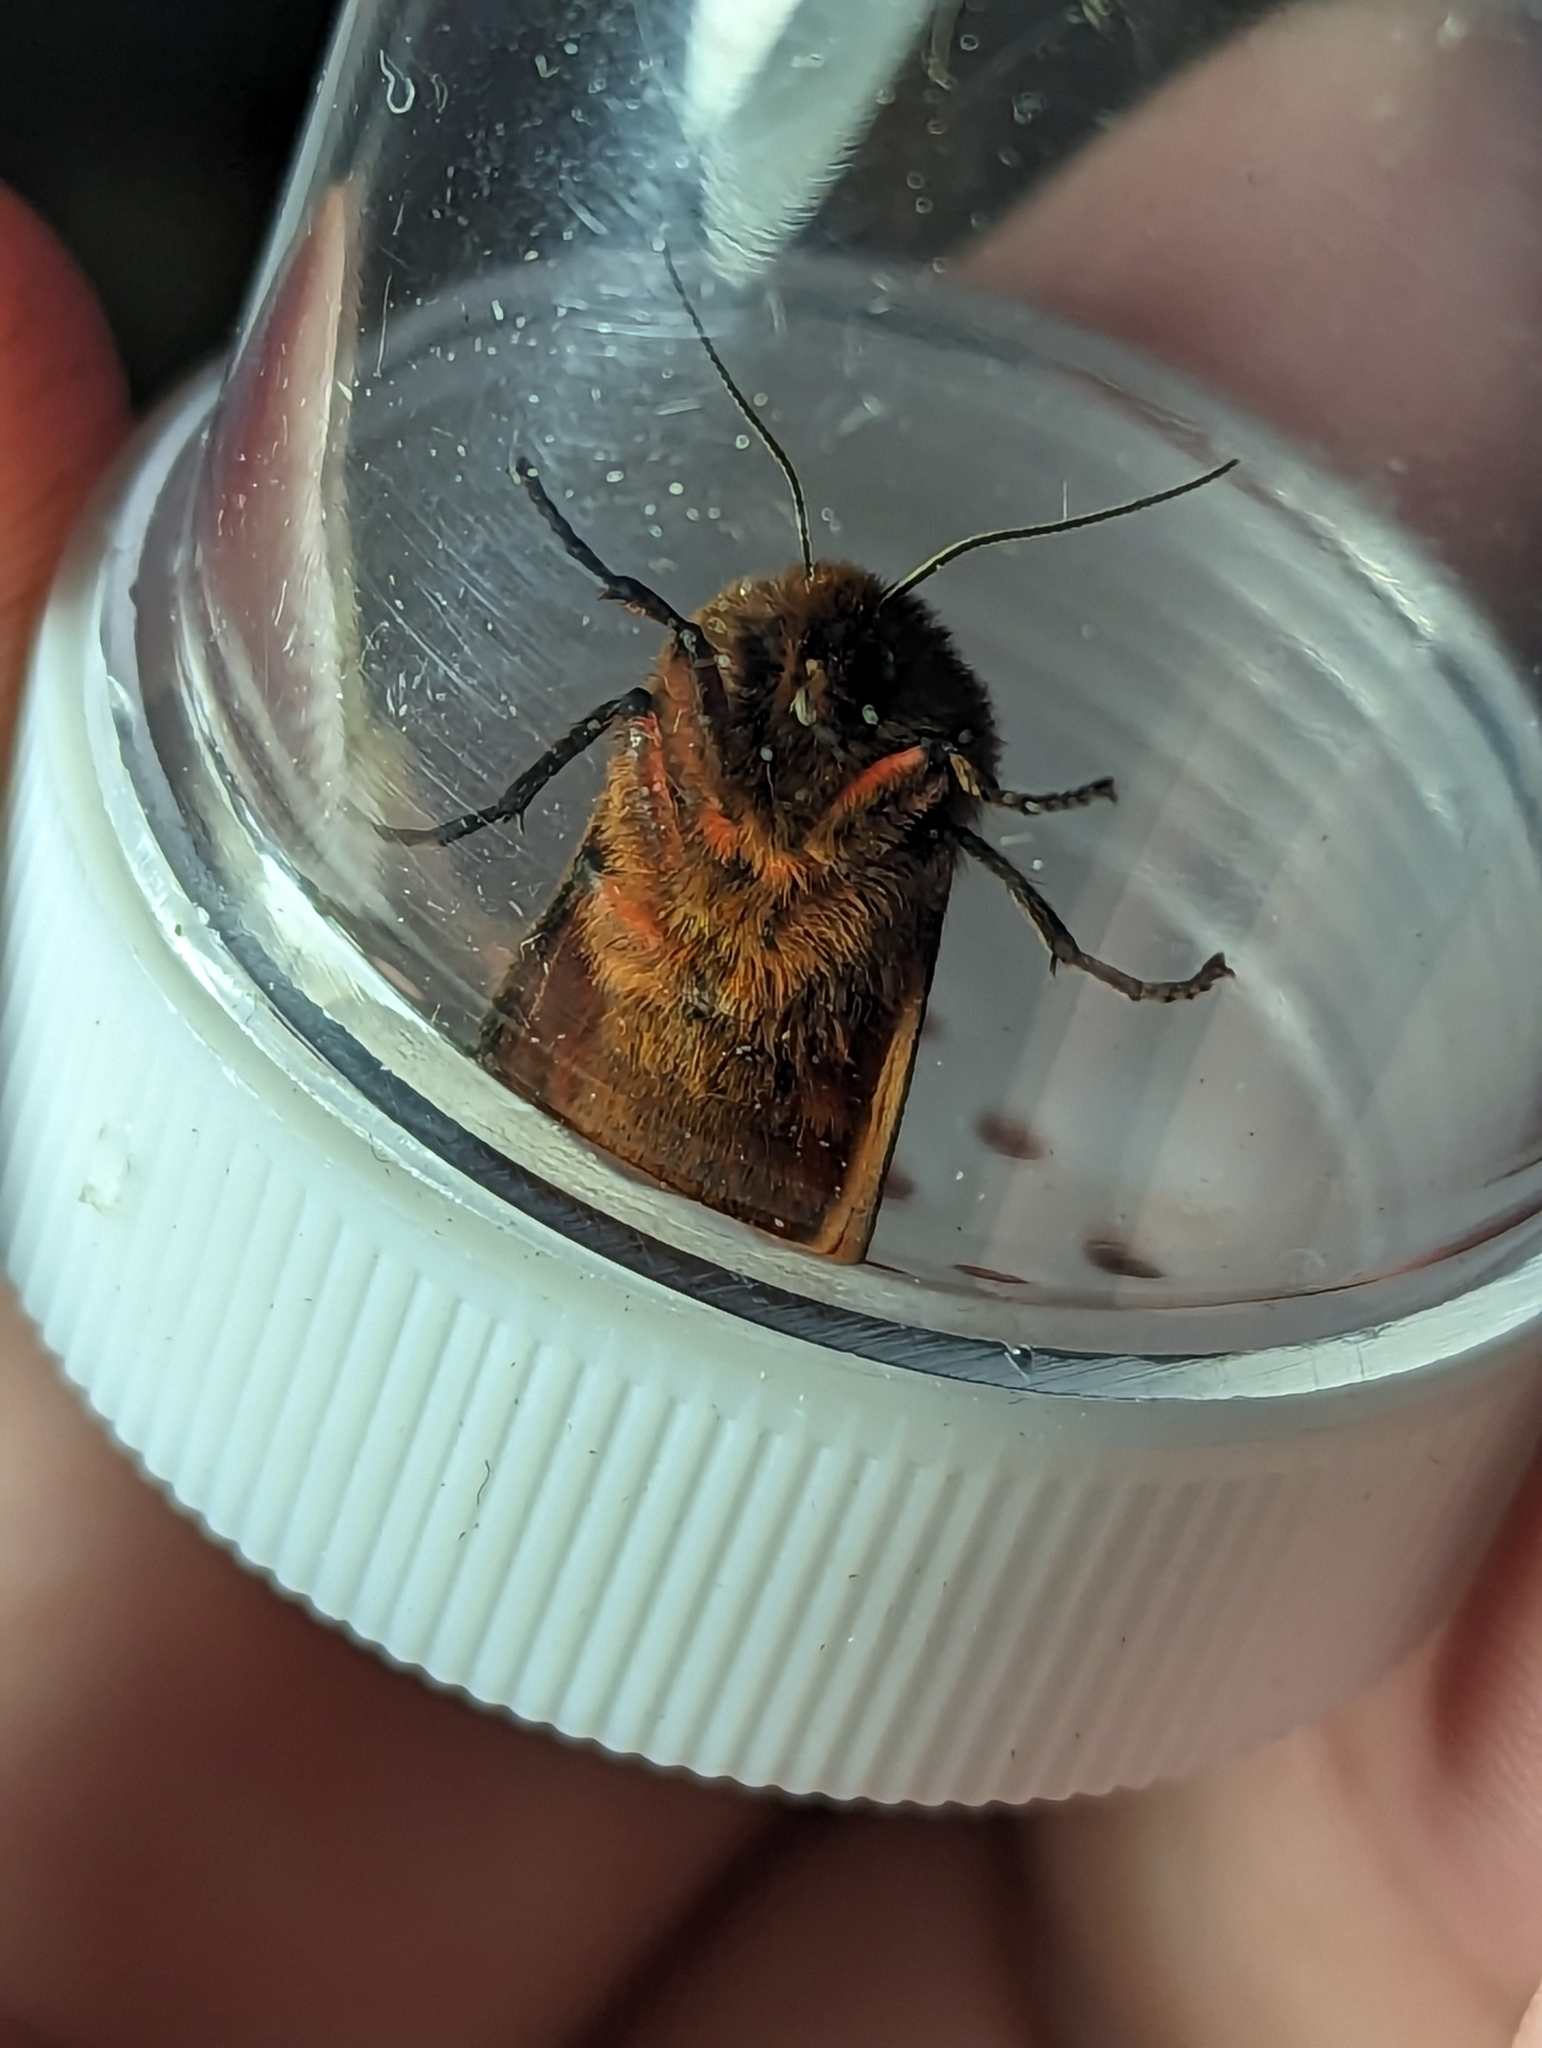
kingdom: Animalia
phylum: Arthropoda
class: Insecta
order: Lepidoptera
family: Erebidae
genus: Phragmatobia
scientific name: Phragmatobia fuliginosa
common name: Ruby tiger
